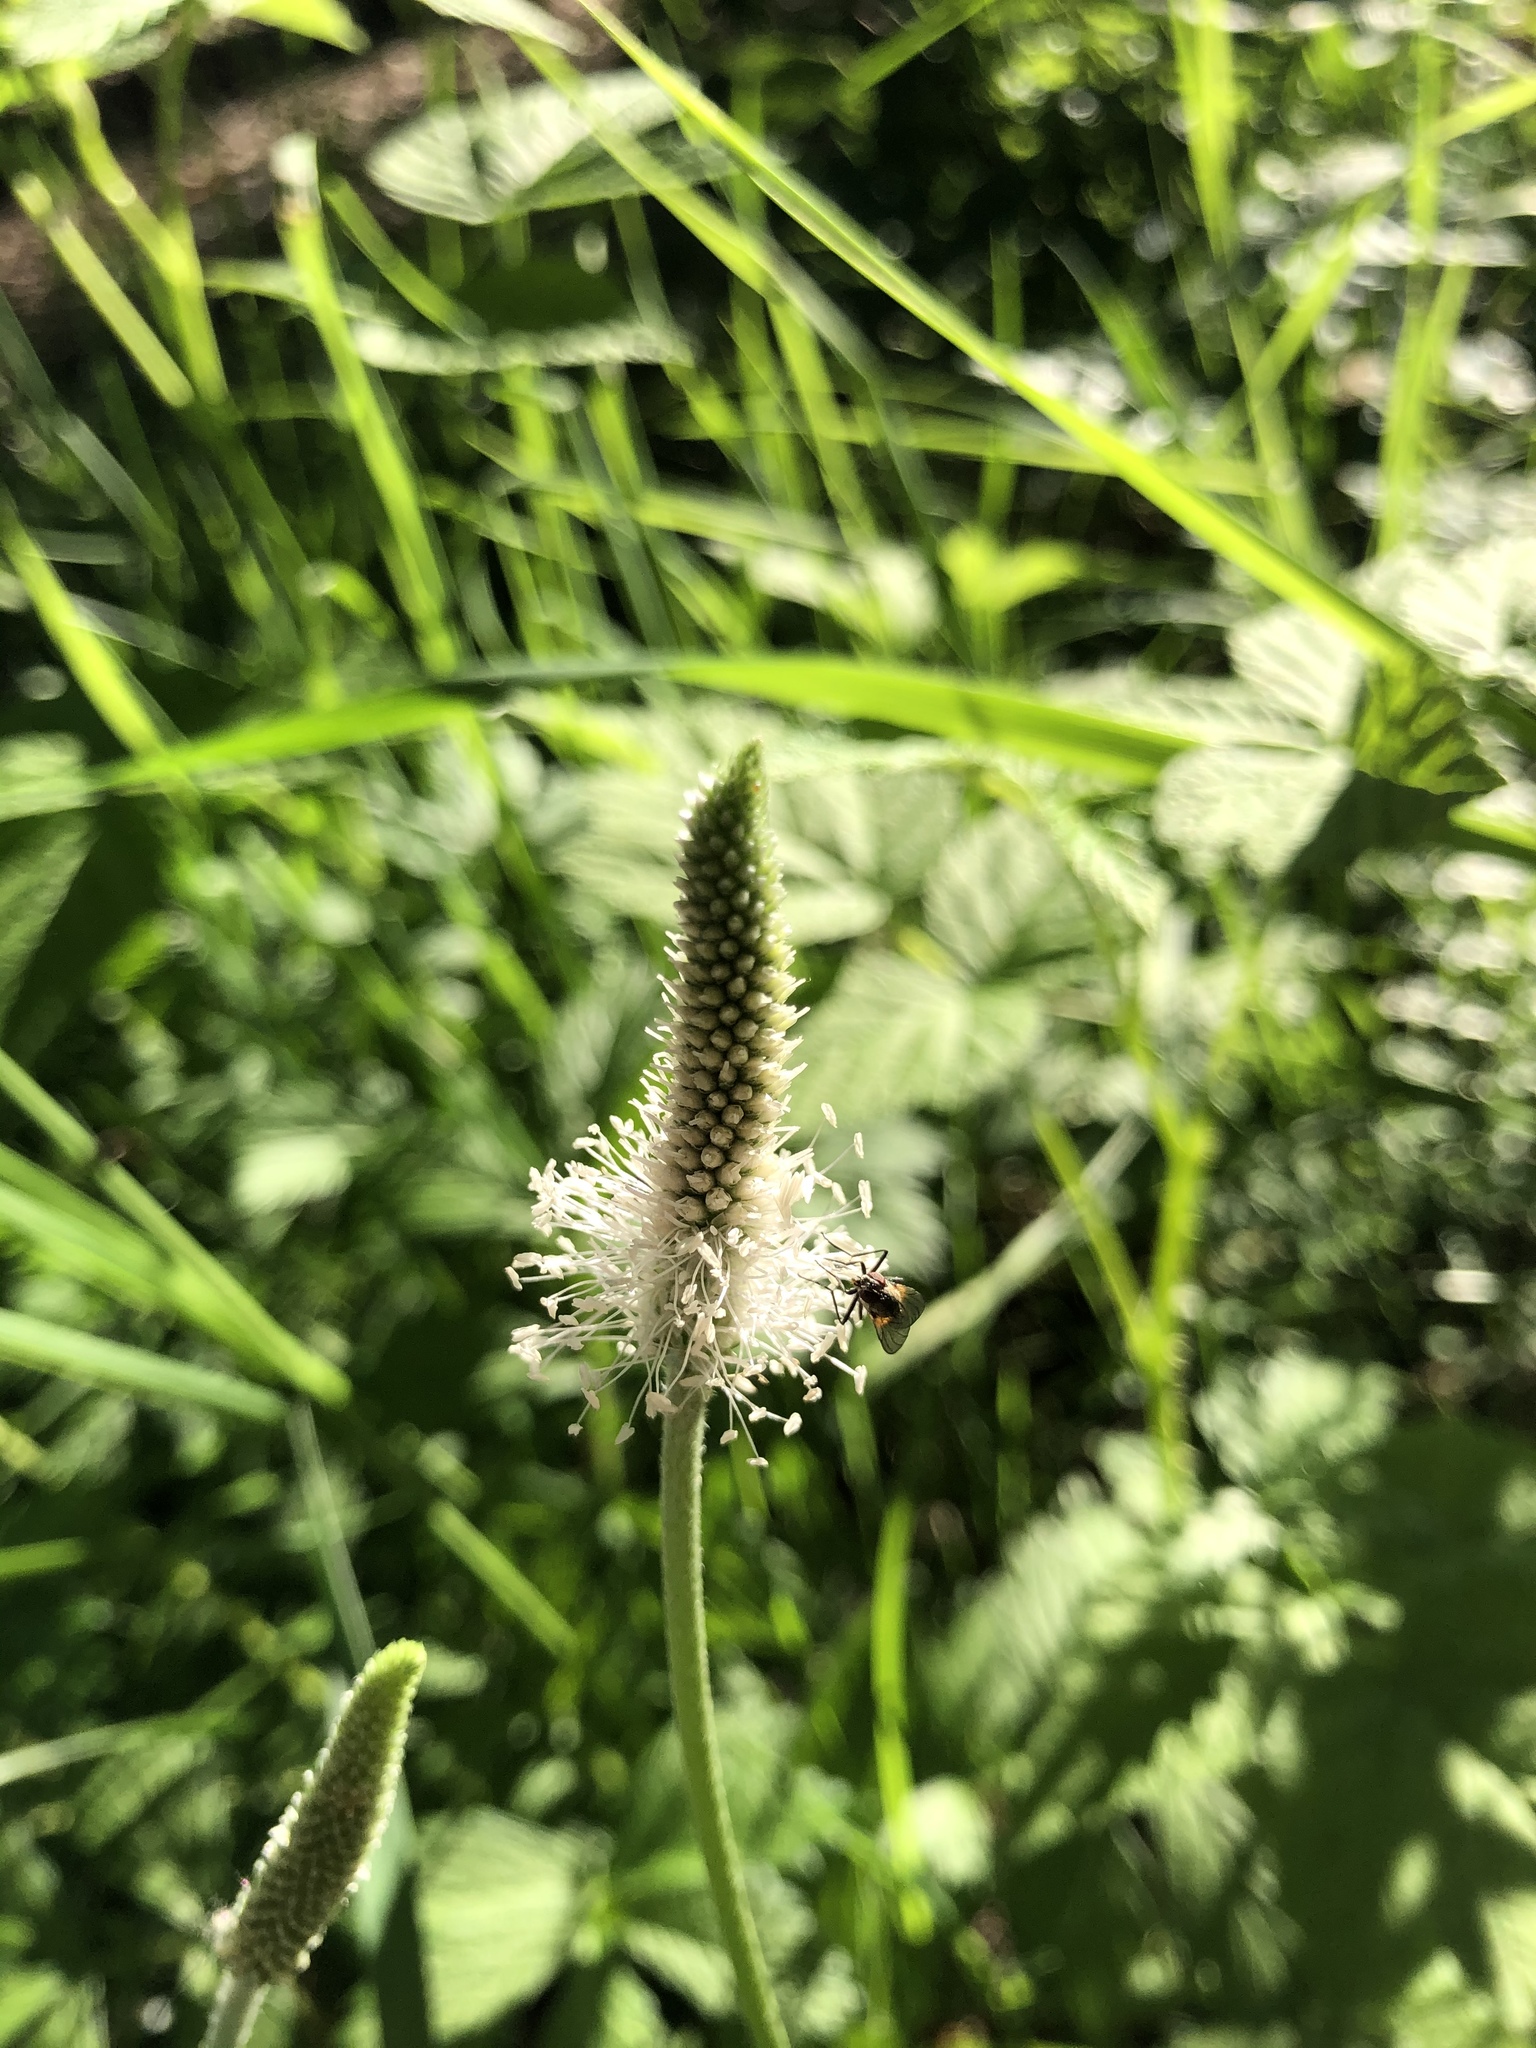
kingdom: Plantae
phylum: Tracheophyta
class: Magnoliopsida
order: Lamiales
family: Plantaginaceae
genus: Plantago
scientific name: Plantago urvillei
